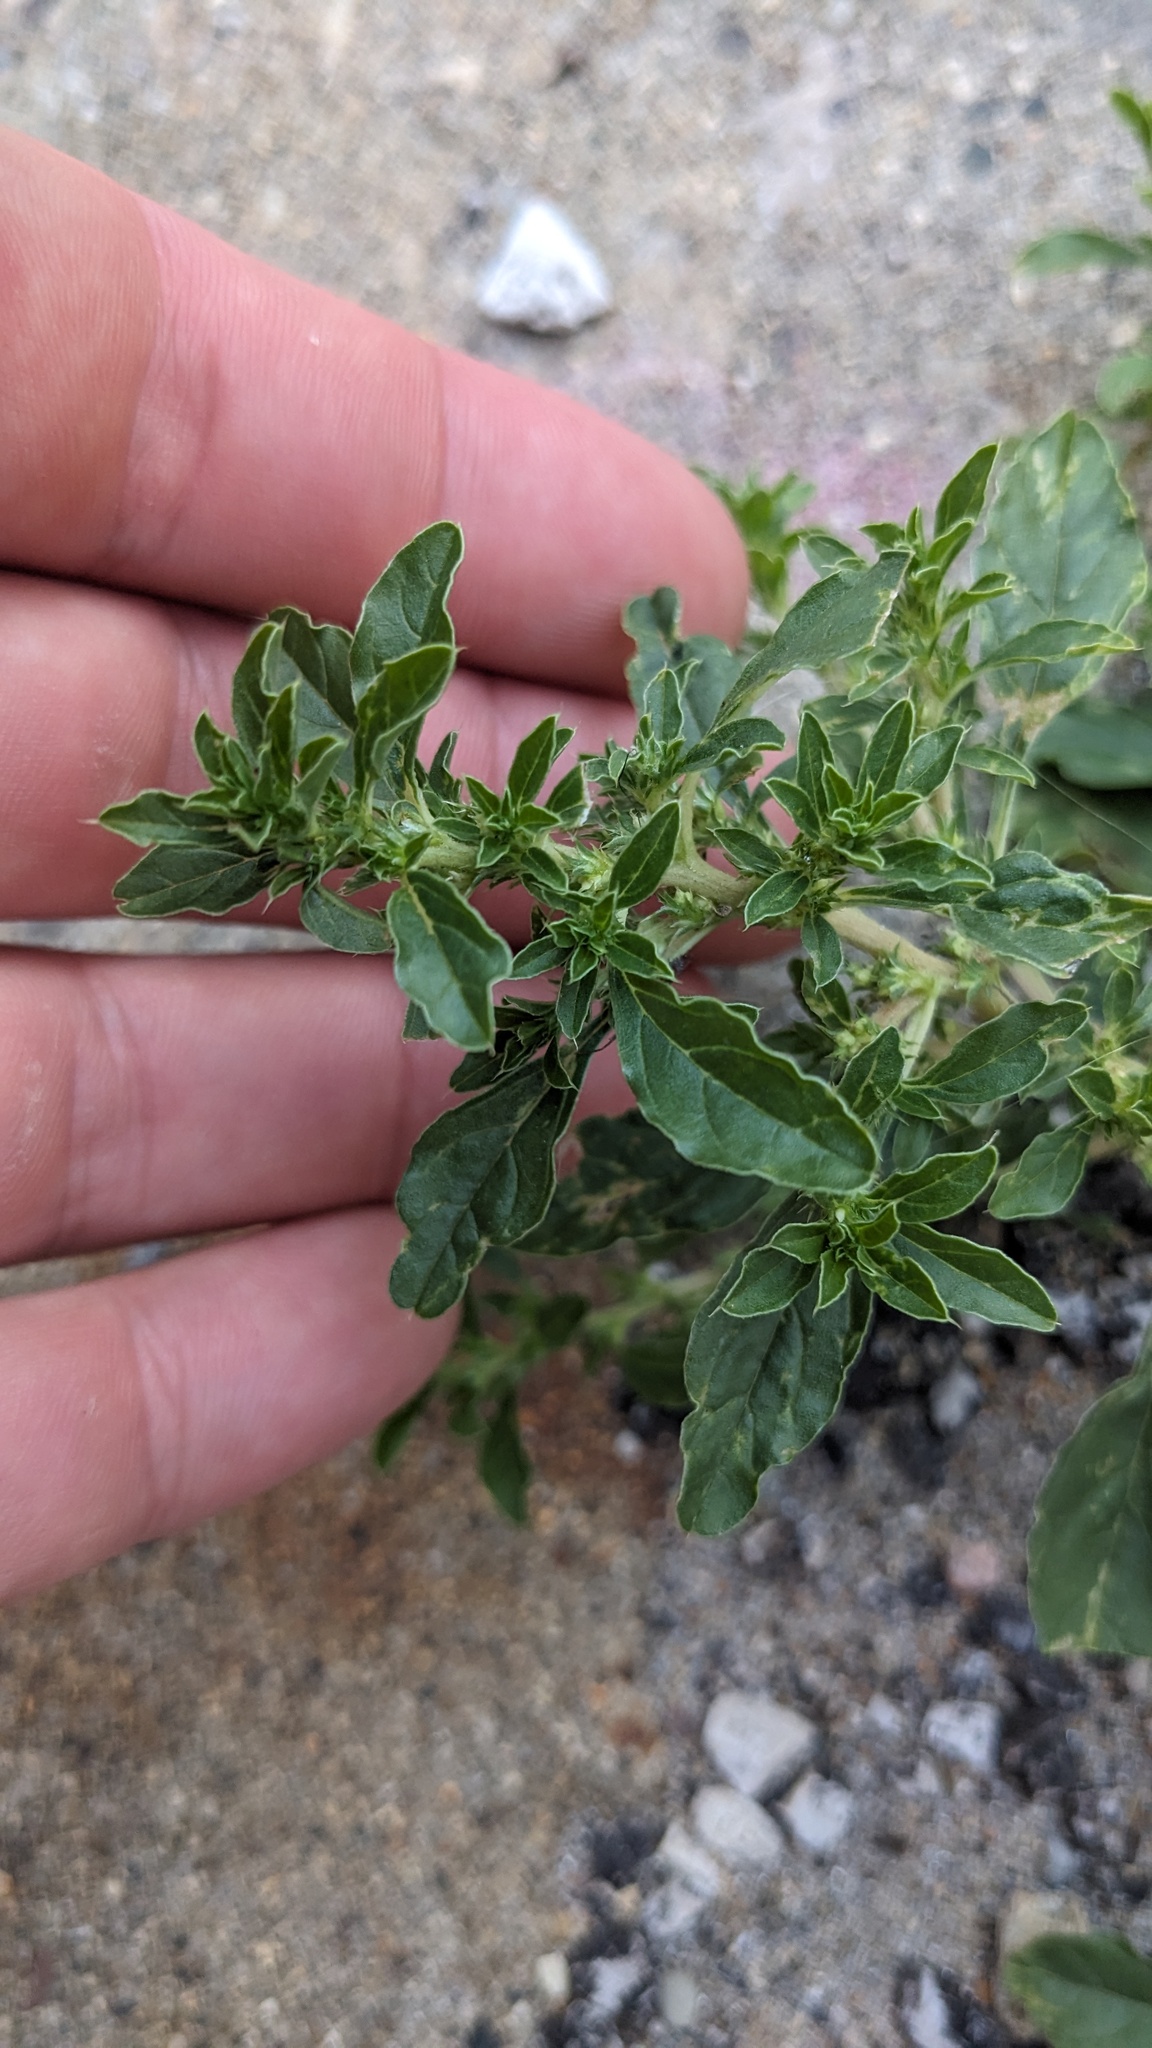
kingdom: Plantae
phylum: Tracheophyta
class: Magnoliopsida
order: Caryophyllales
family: Amaranthaceae
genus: Amaranthus
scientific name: Amaranthus albus
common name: White pigweed
